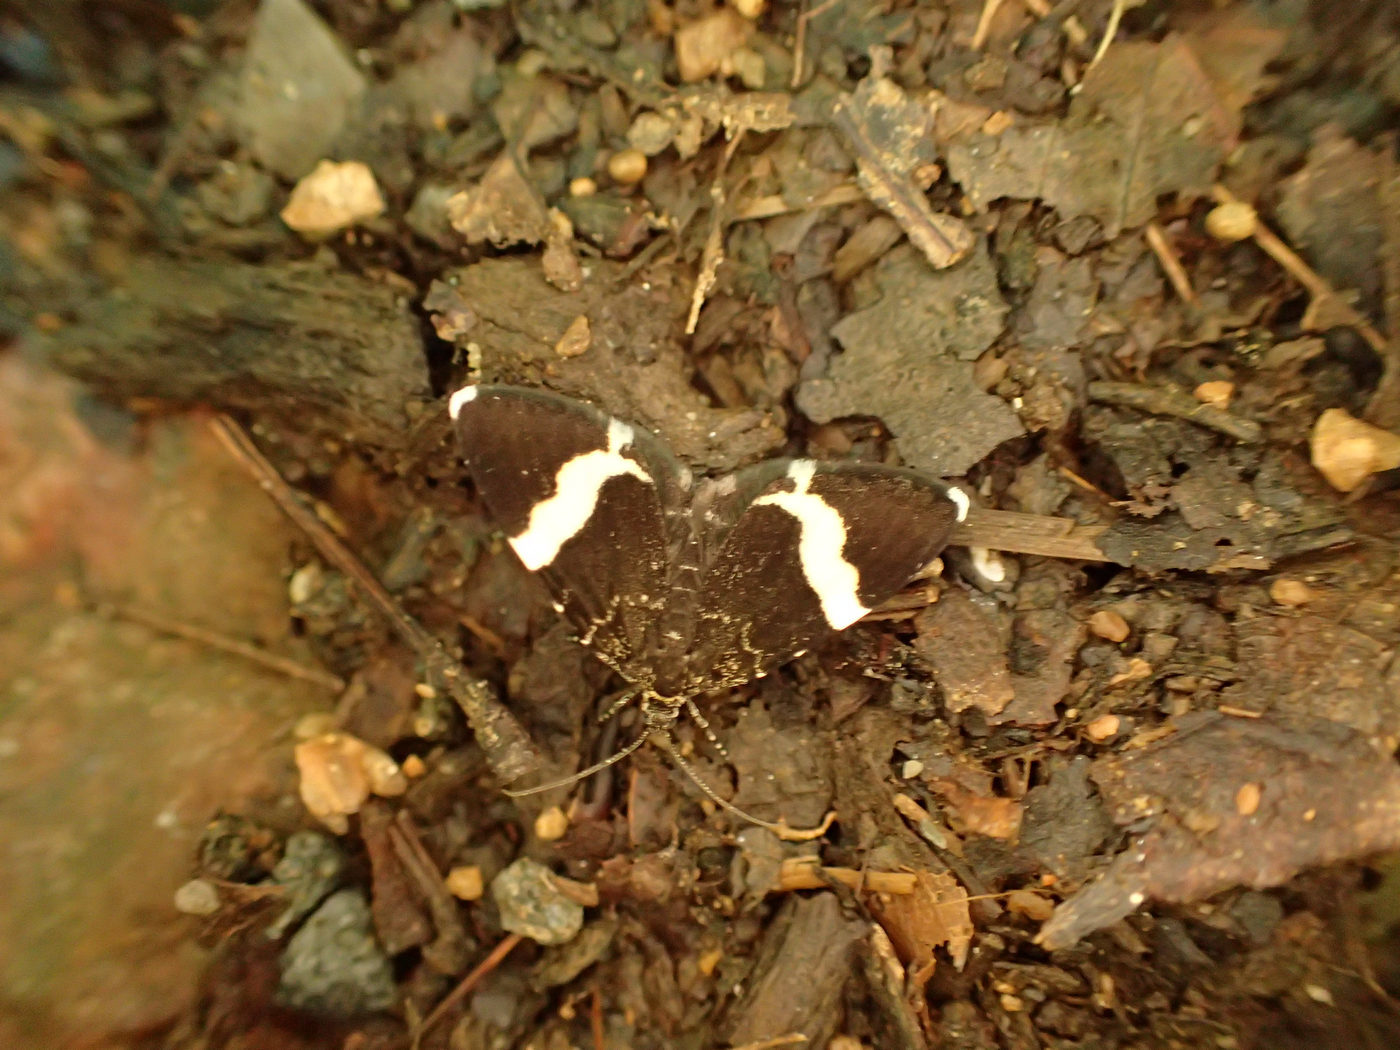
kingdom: Animalia
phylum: Arthropoda
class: Insecta
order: Lepidoptera
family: Geometridae
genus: Trichodezia
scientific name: Trichodezia albovittata
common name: White striped black
